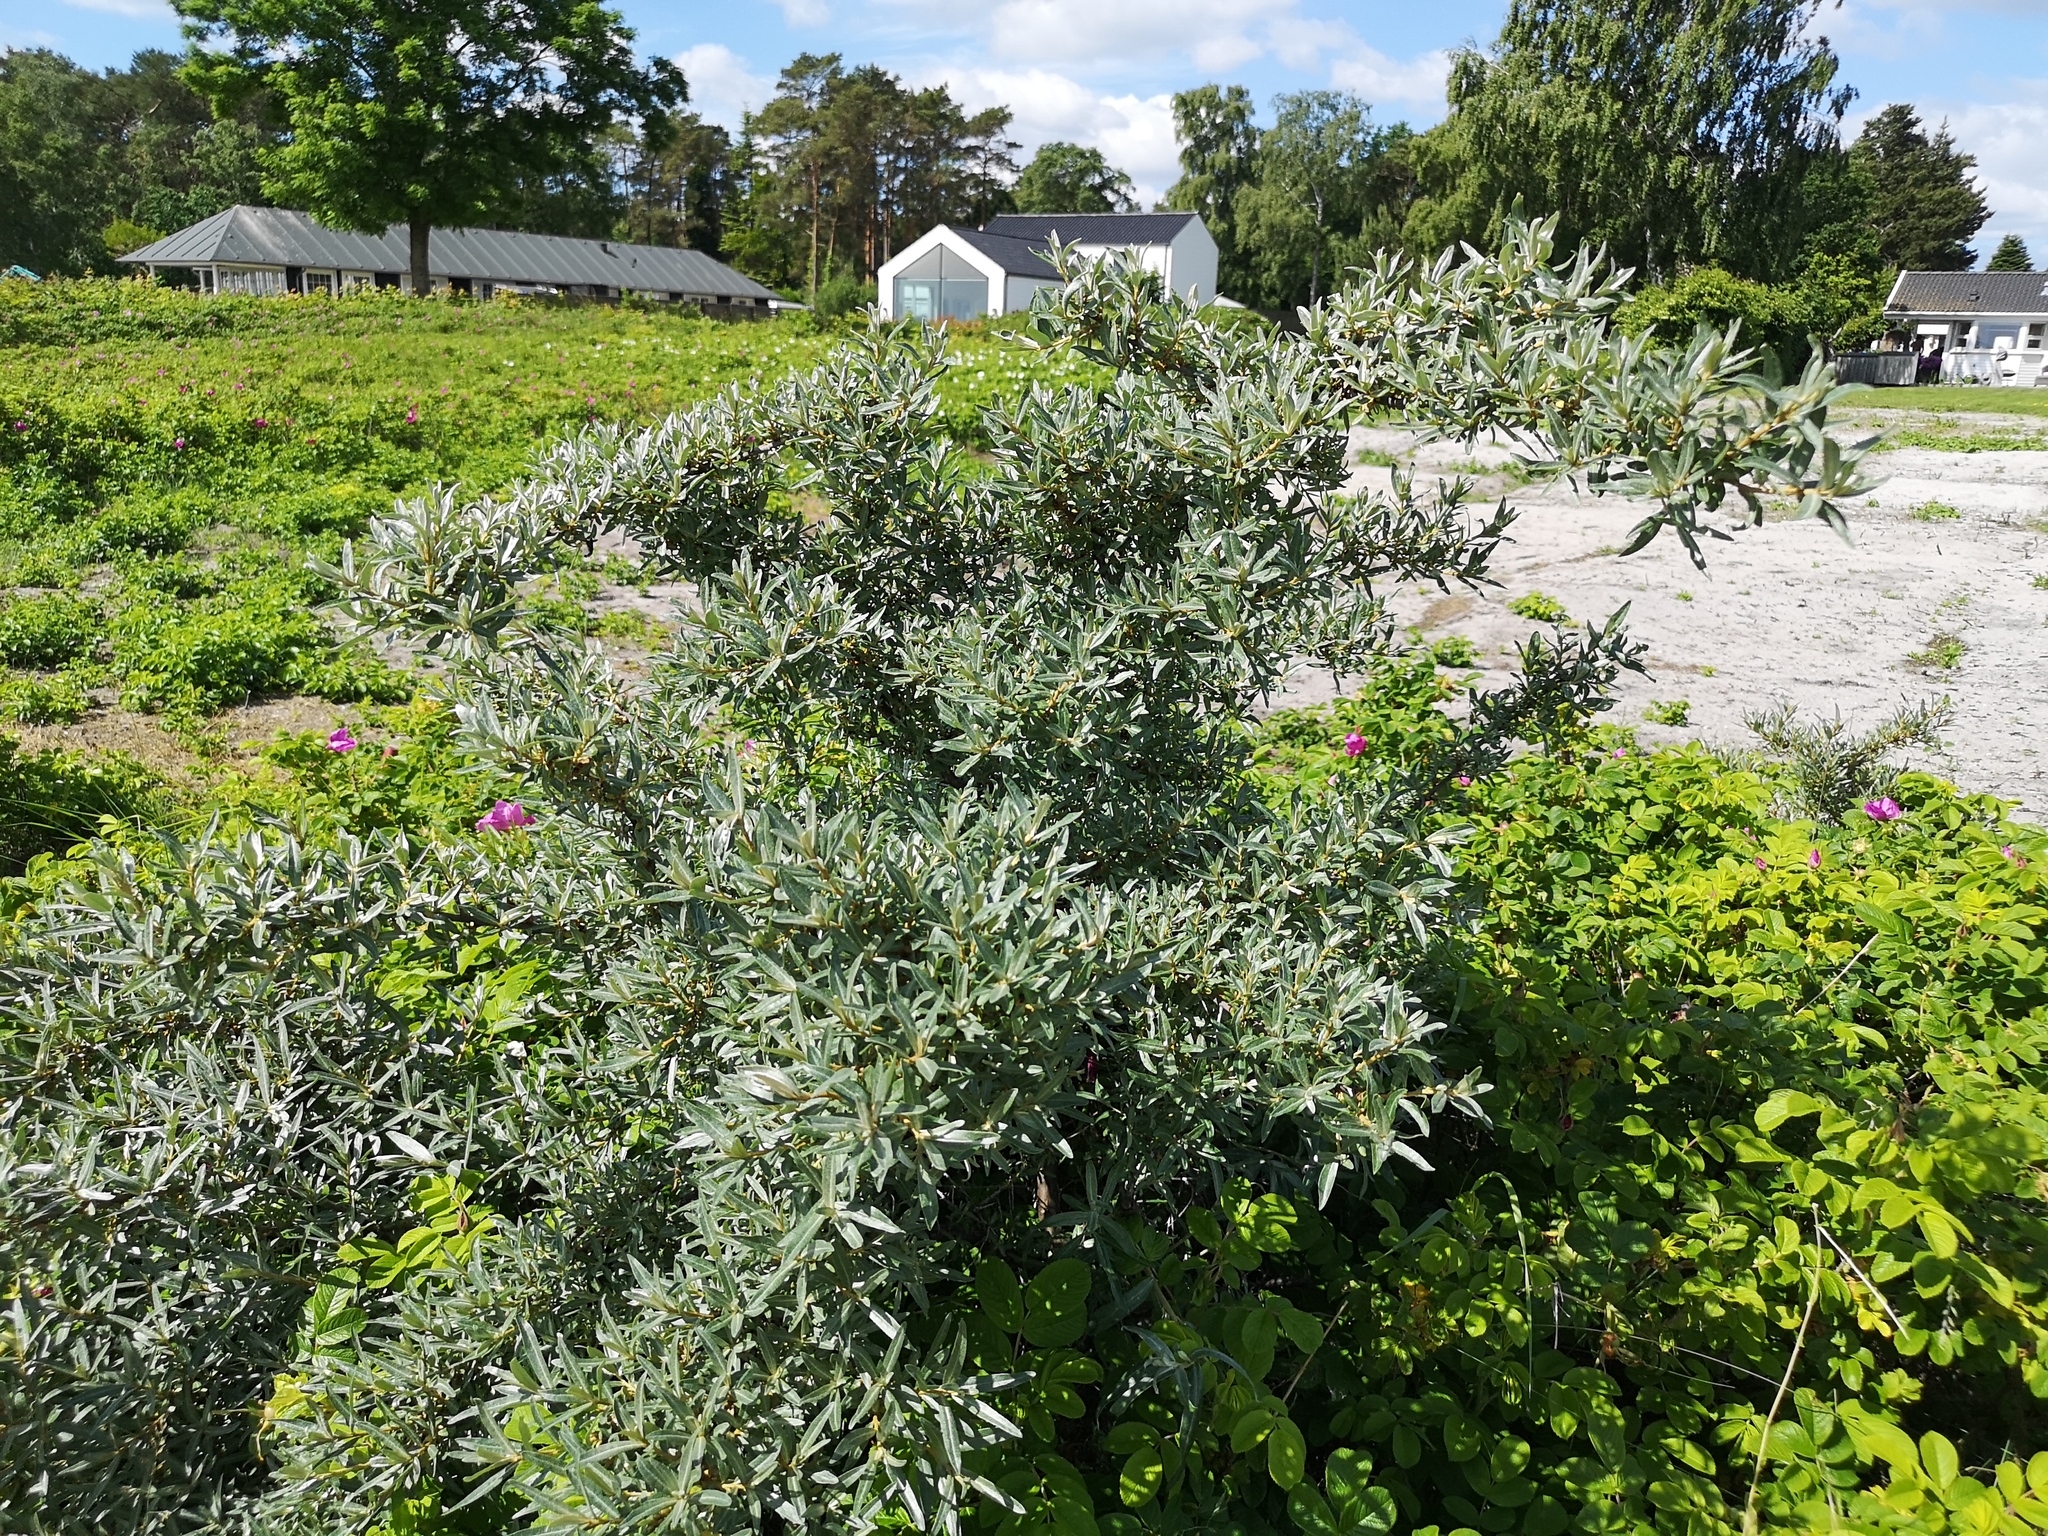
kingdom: Plantae
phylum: Tracheophyta
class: Magnoliopsida
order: Rosales
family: Elaeagnaceae
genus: Hippophae
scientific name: Hippophae rhamnoides
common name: Sea-buckthorn
